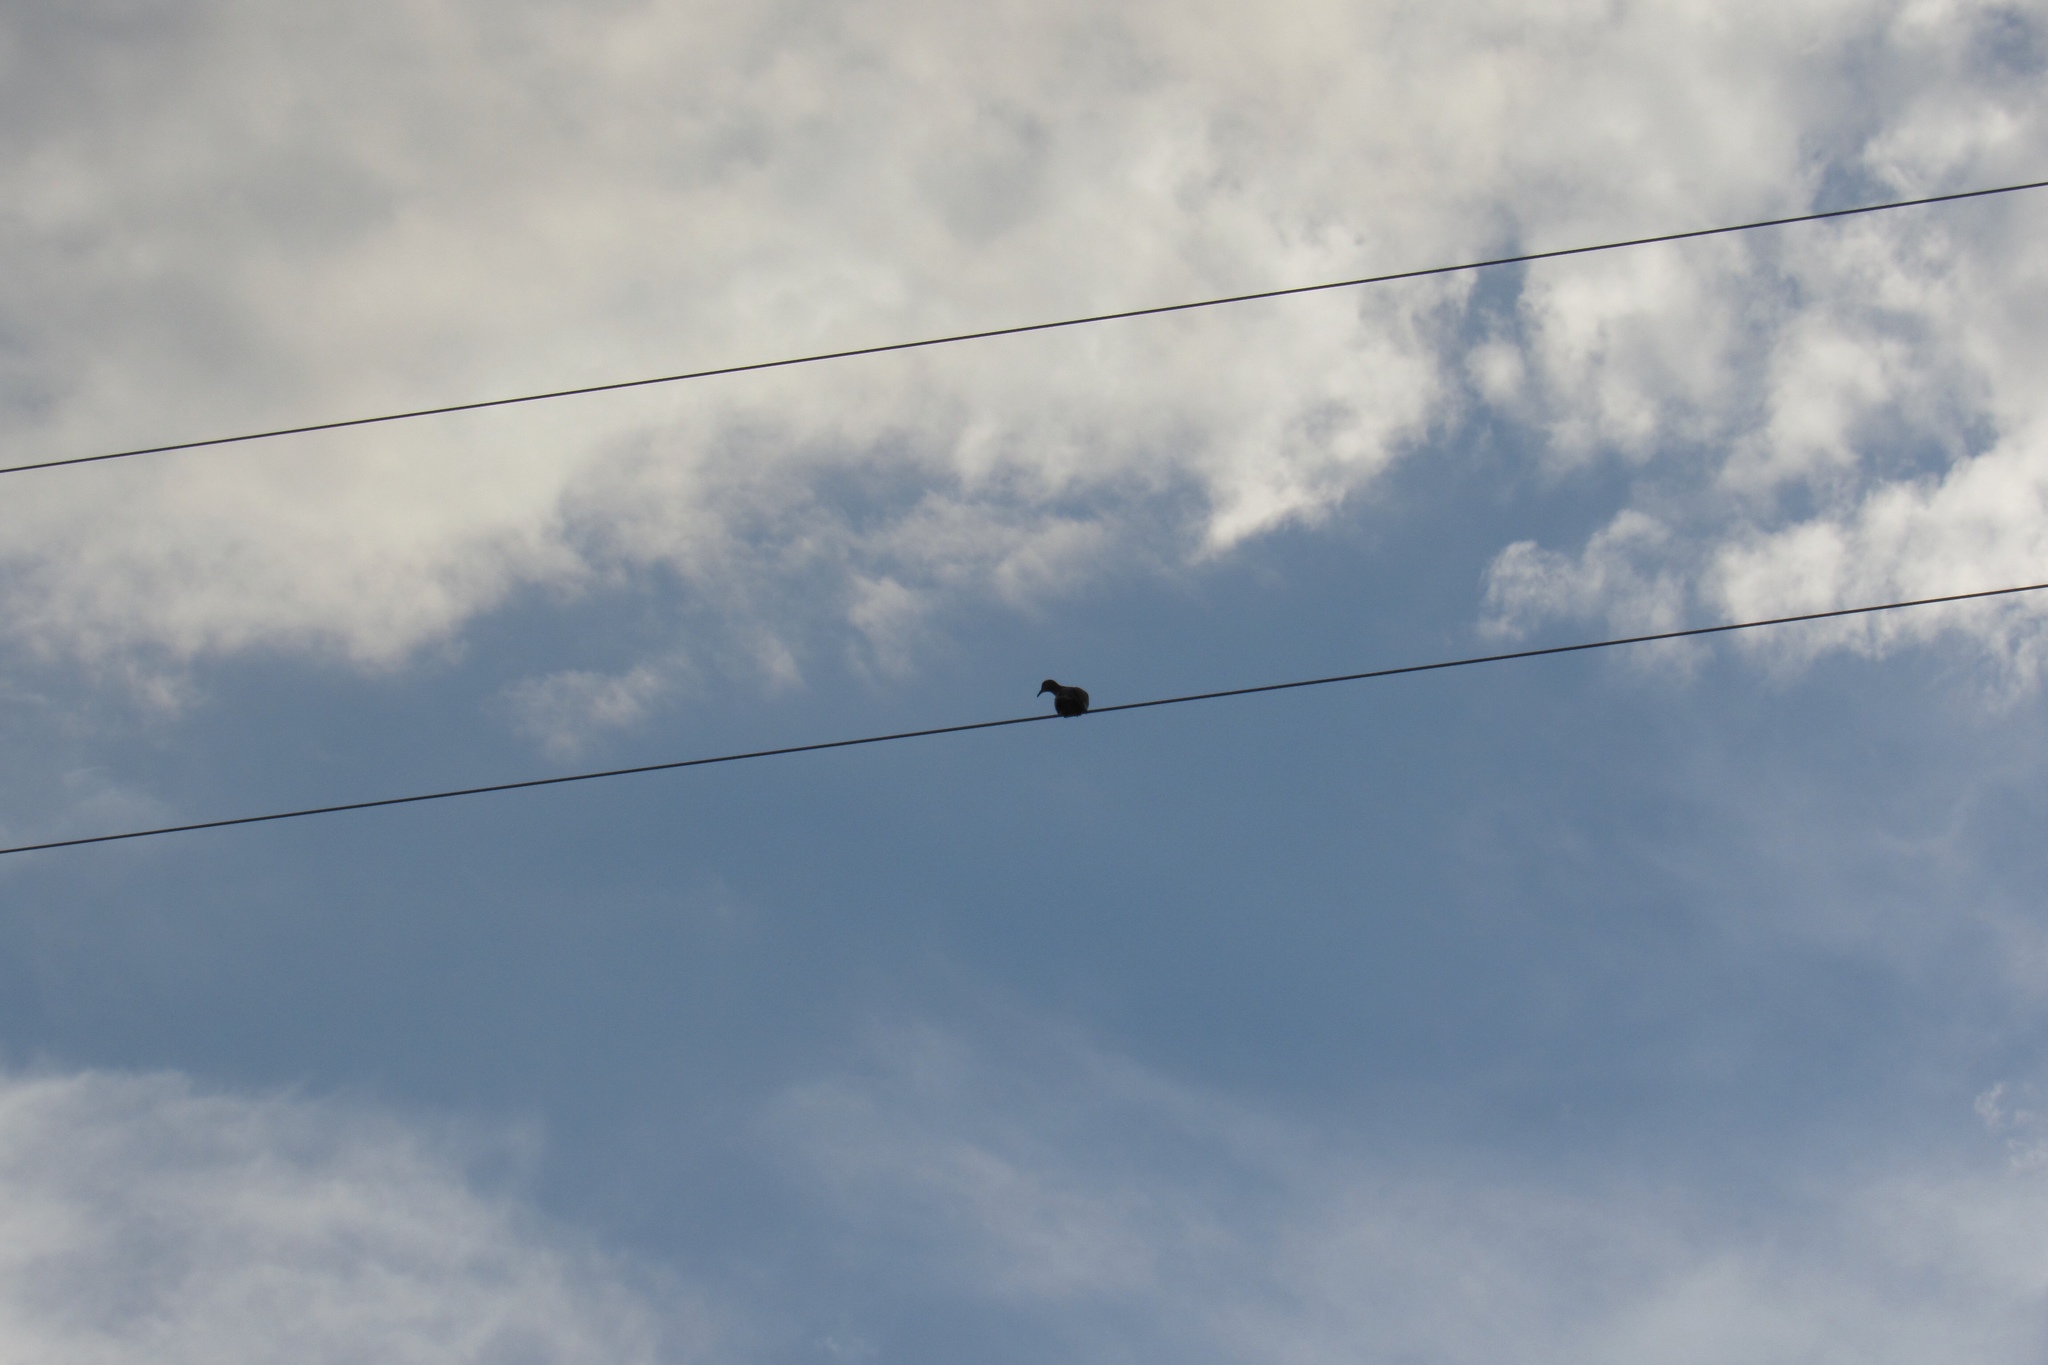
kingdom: Animalia
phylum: Chordata
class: Aves
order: Columbiformes
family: Columbidae
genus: Zenaida
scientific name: Zenaida asiatica
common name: White-winged dove
